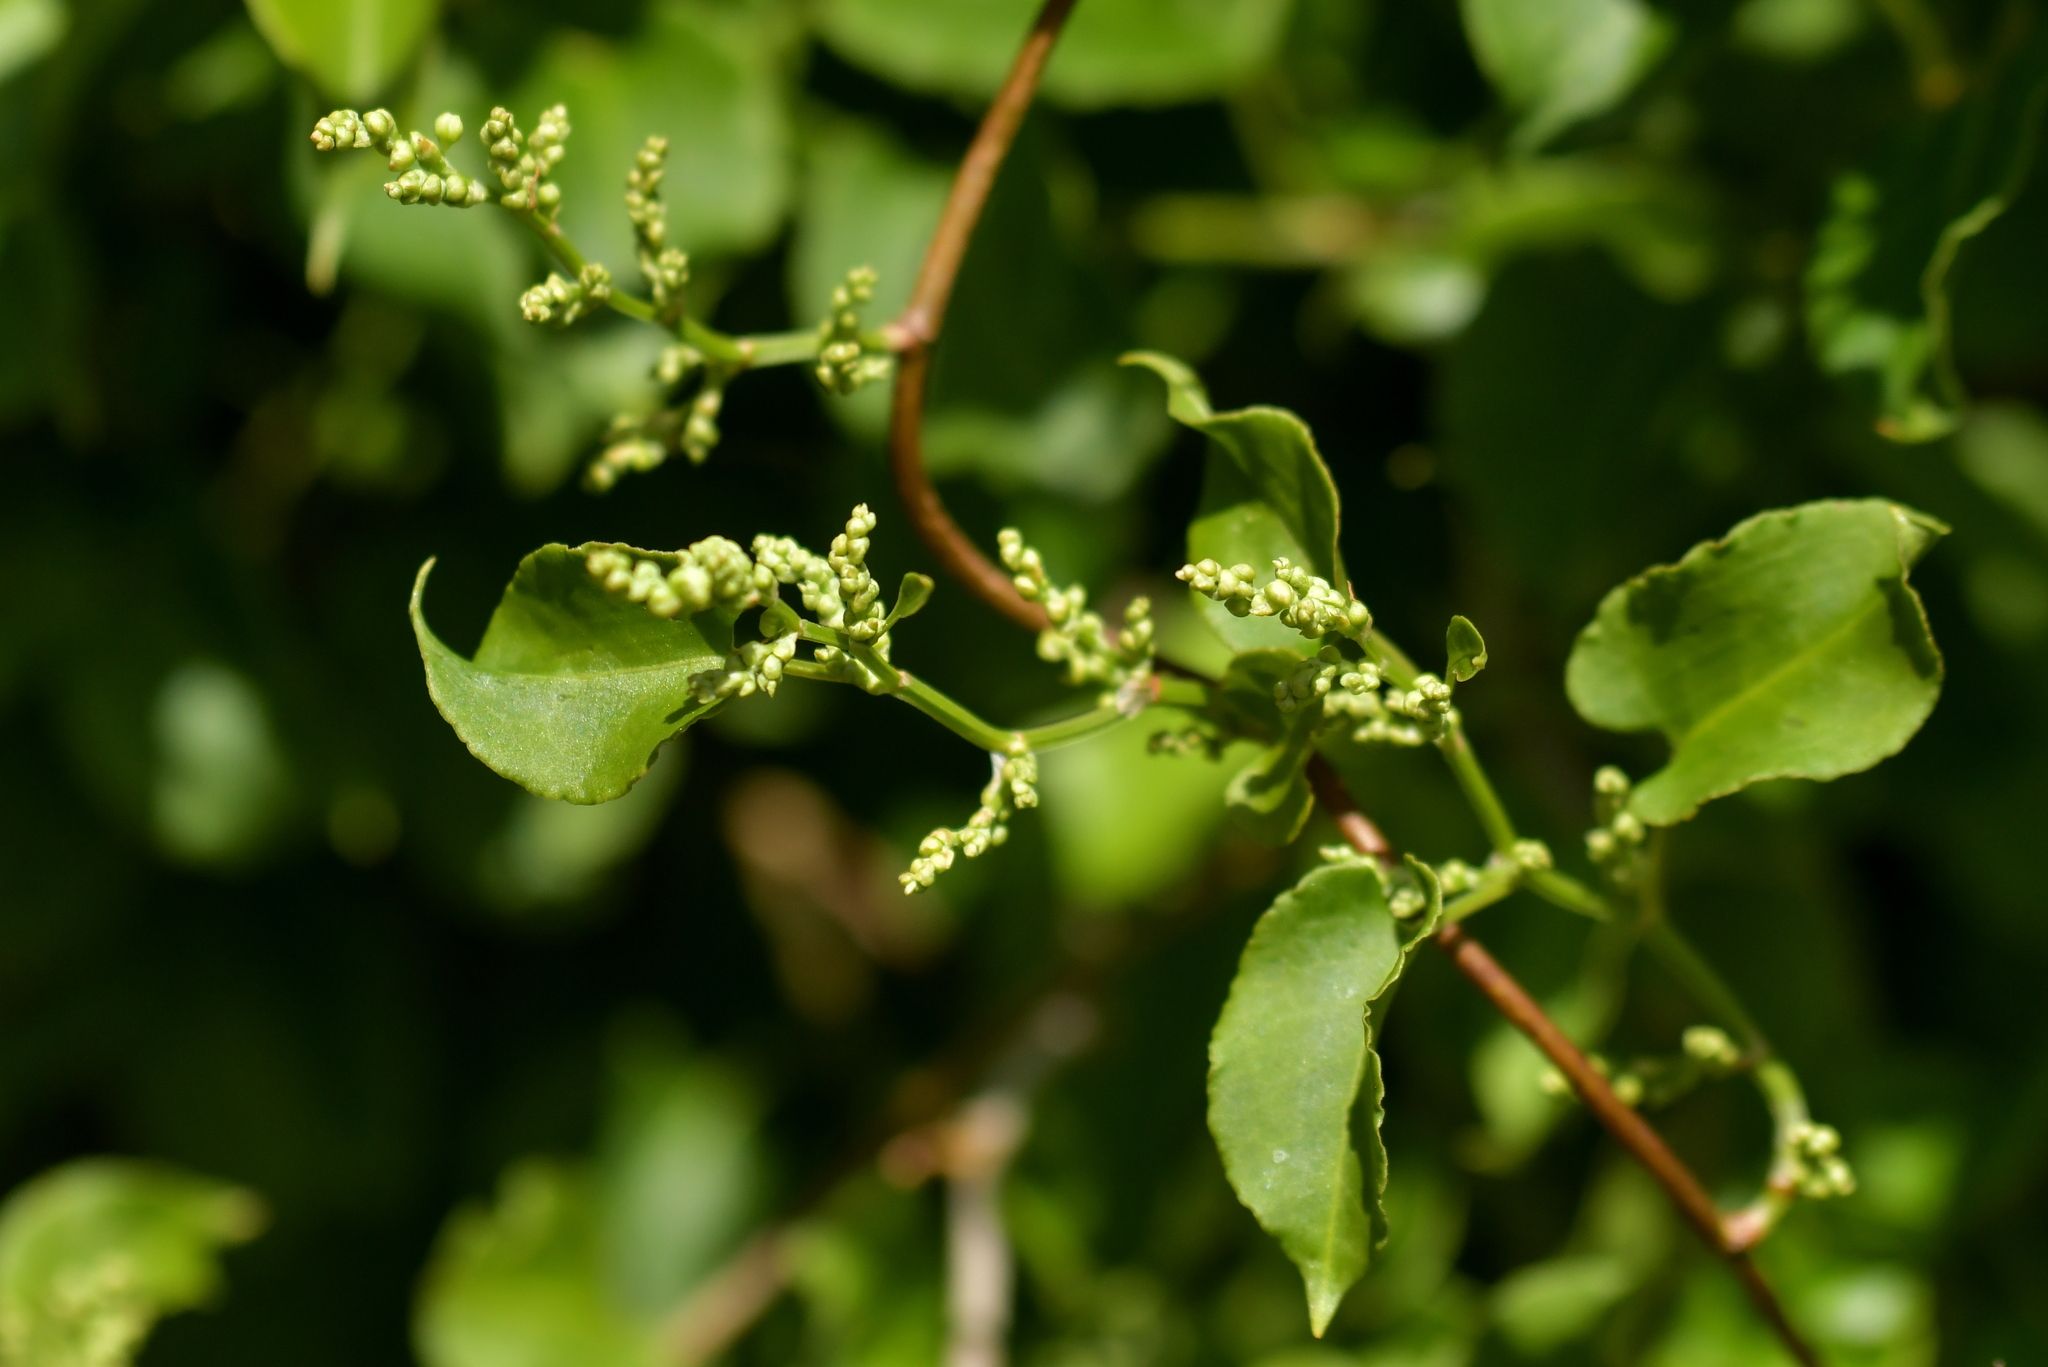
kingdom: Plantae
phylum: Tracheophyta
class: Magnoliopsida
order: Caryophyllales
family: Polygonaceae
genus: Muehlenbeckia
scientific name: Muehlenbeckia australis
